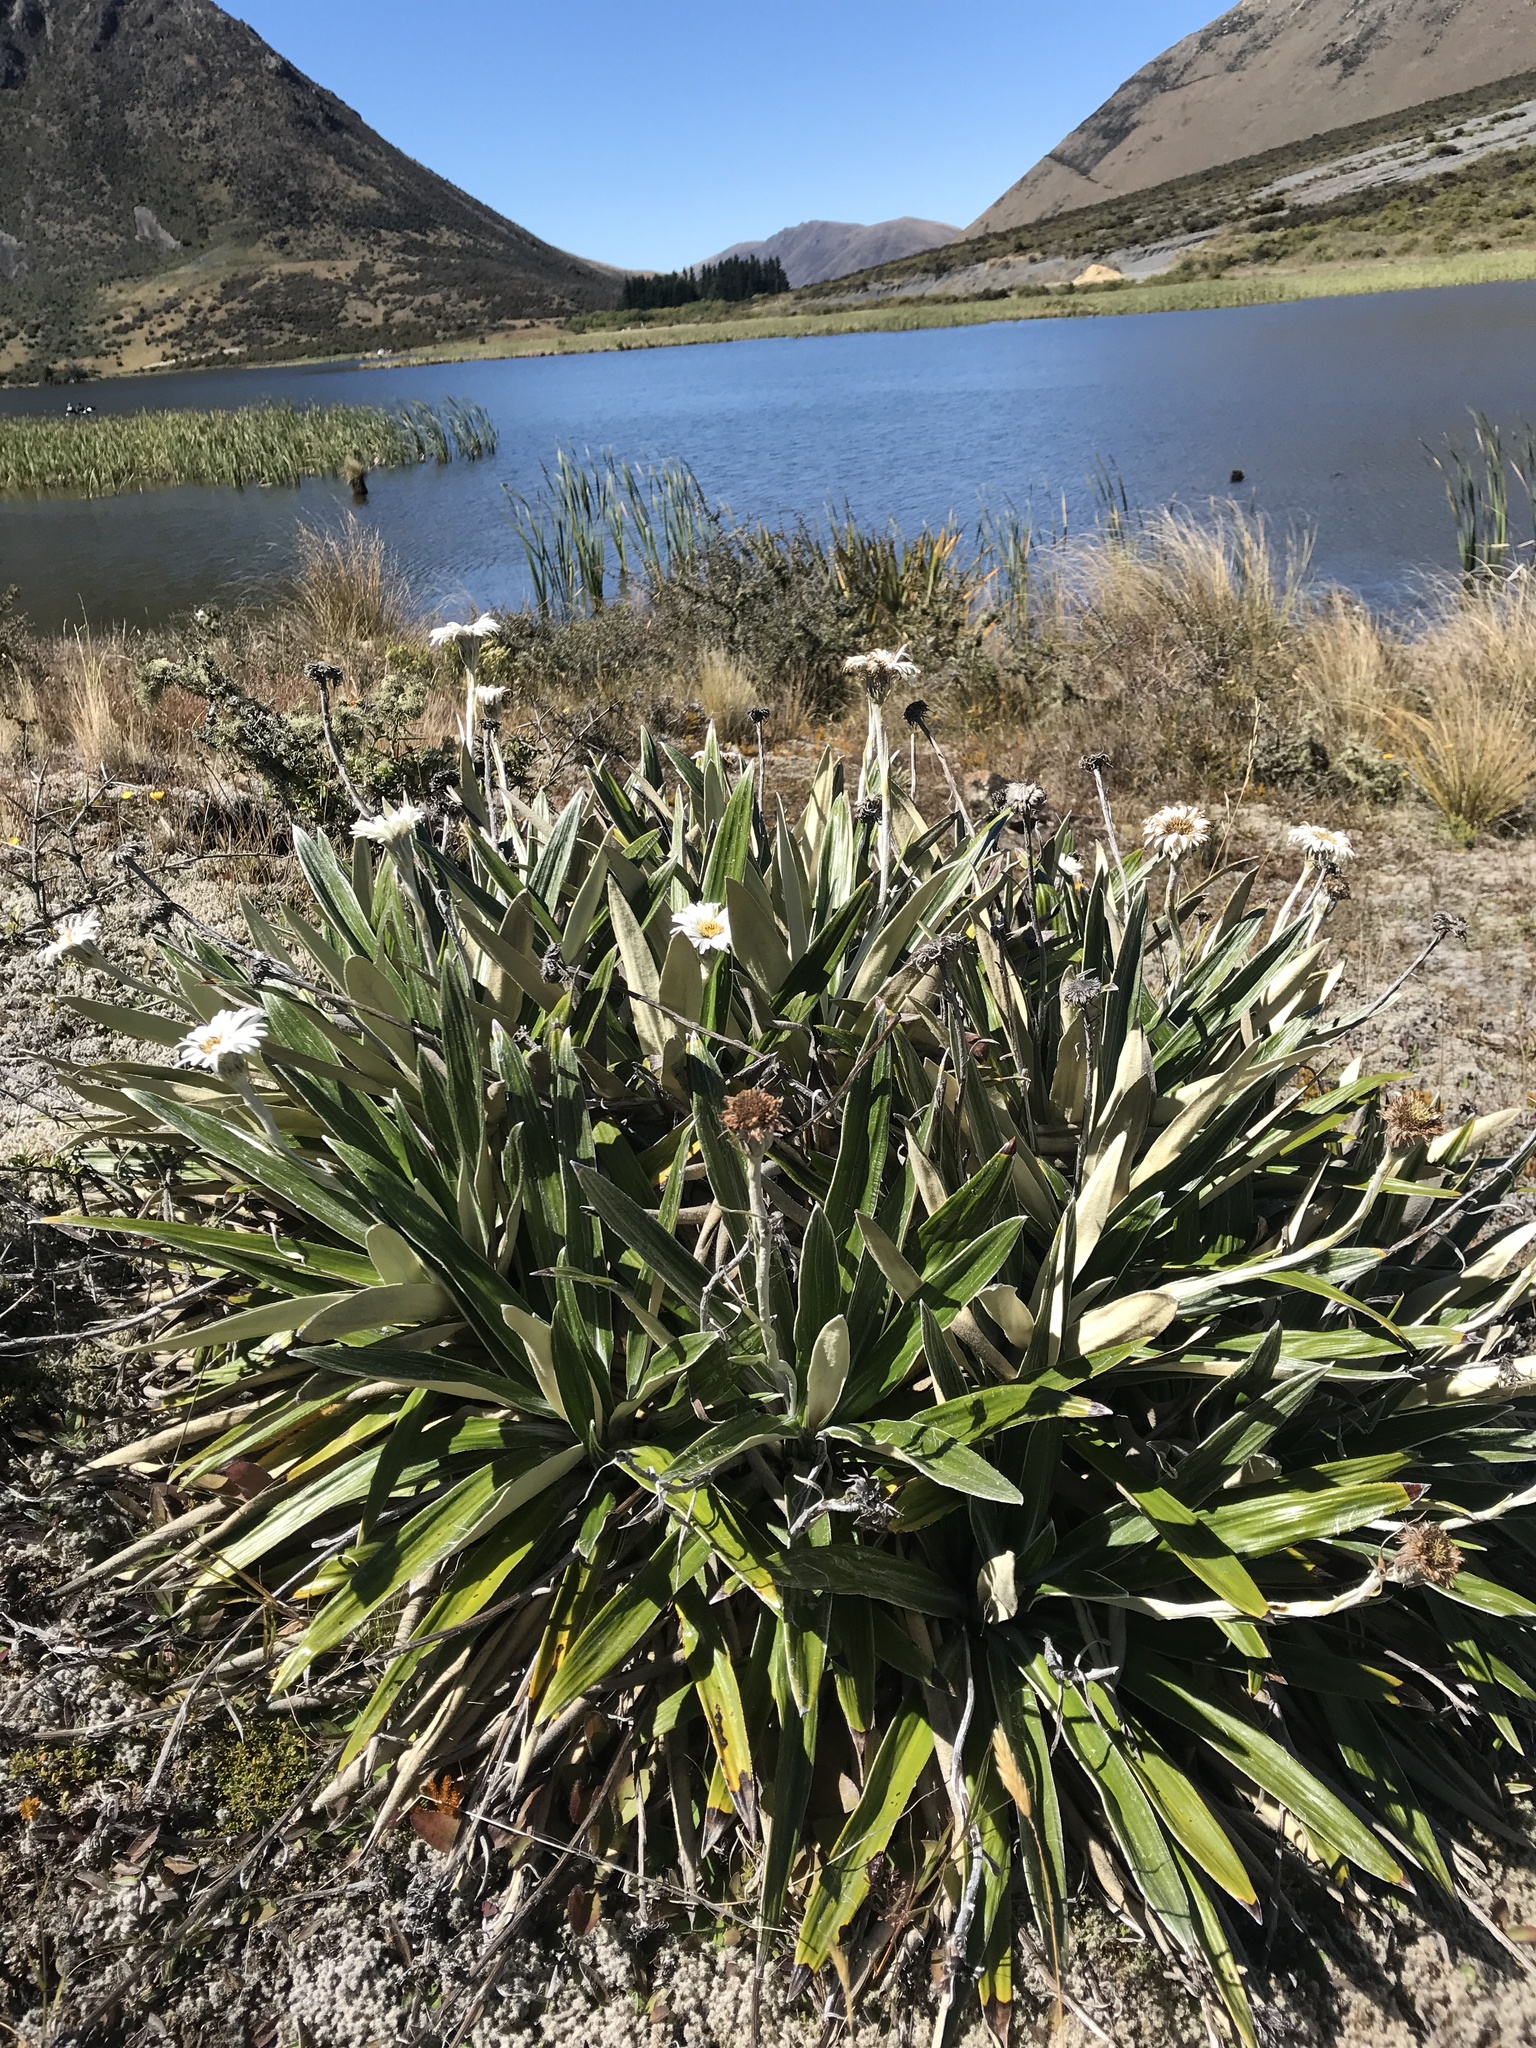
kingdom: Plantae
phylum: Tracheophyta
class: Magnoliopsida
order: Asterales
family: Asteraceae
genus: Celmisia
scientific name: Celmisia spectabilis
